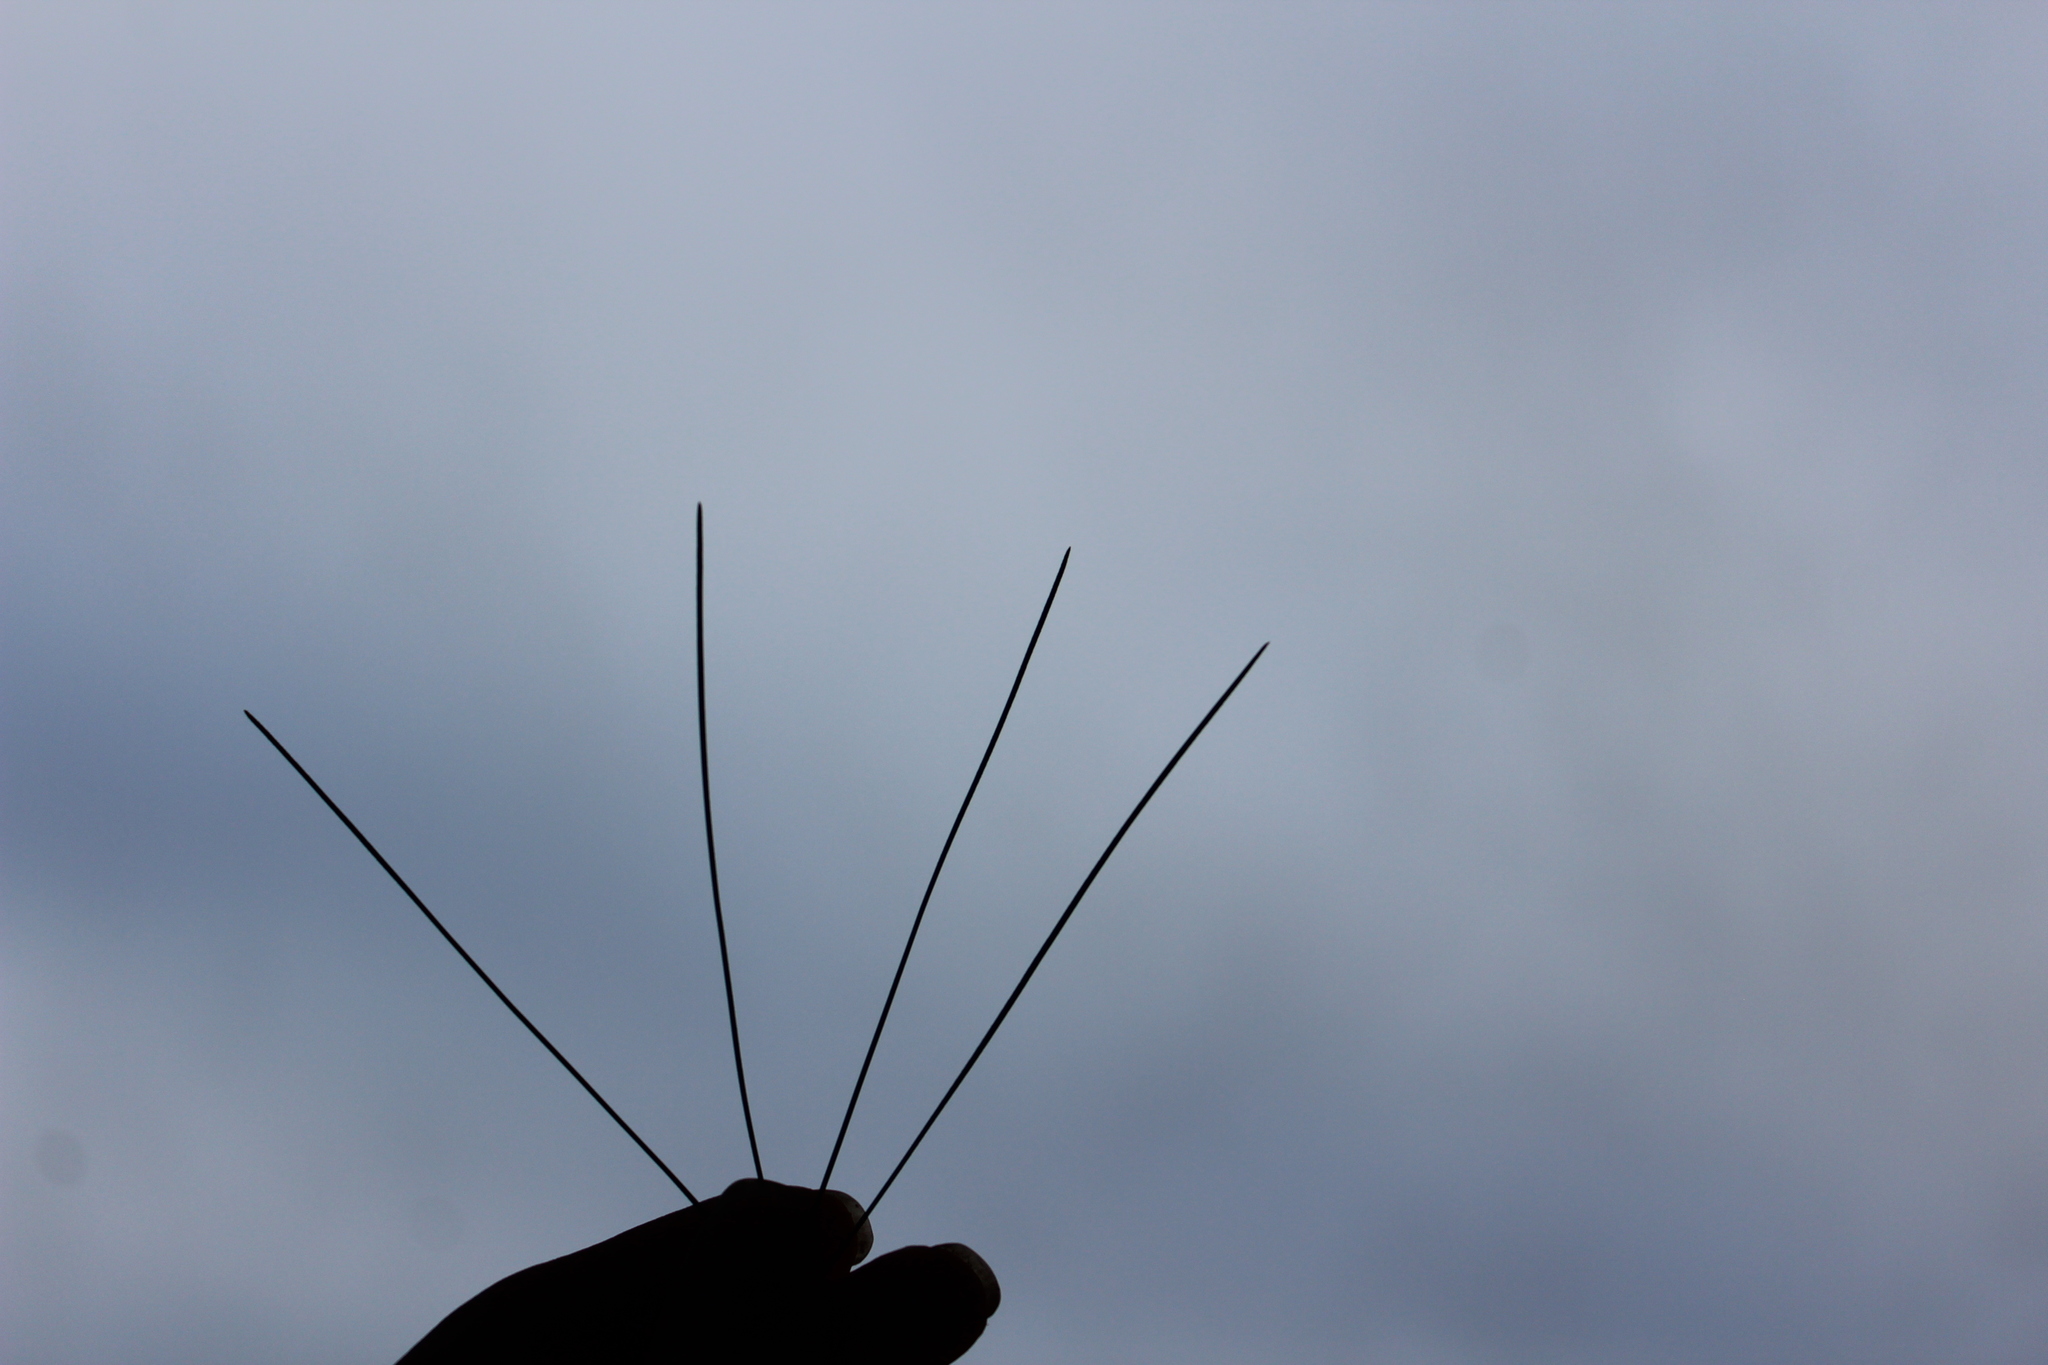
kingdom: Plantae
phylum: Tracheophyta
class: Pinopsida
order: Pinales
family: Pinaceae
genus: Pinus
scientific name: Pinus strobus
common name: Weymouth pine
